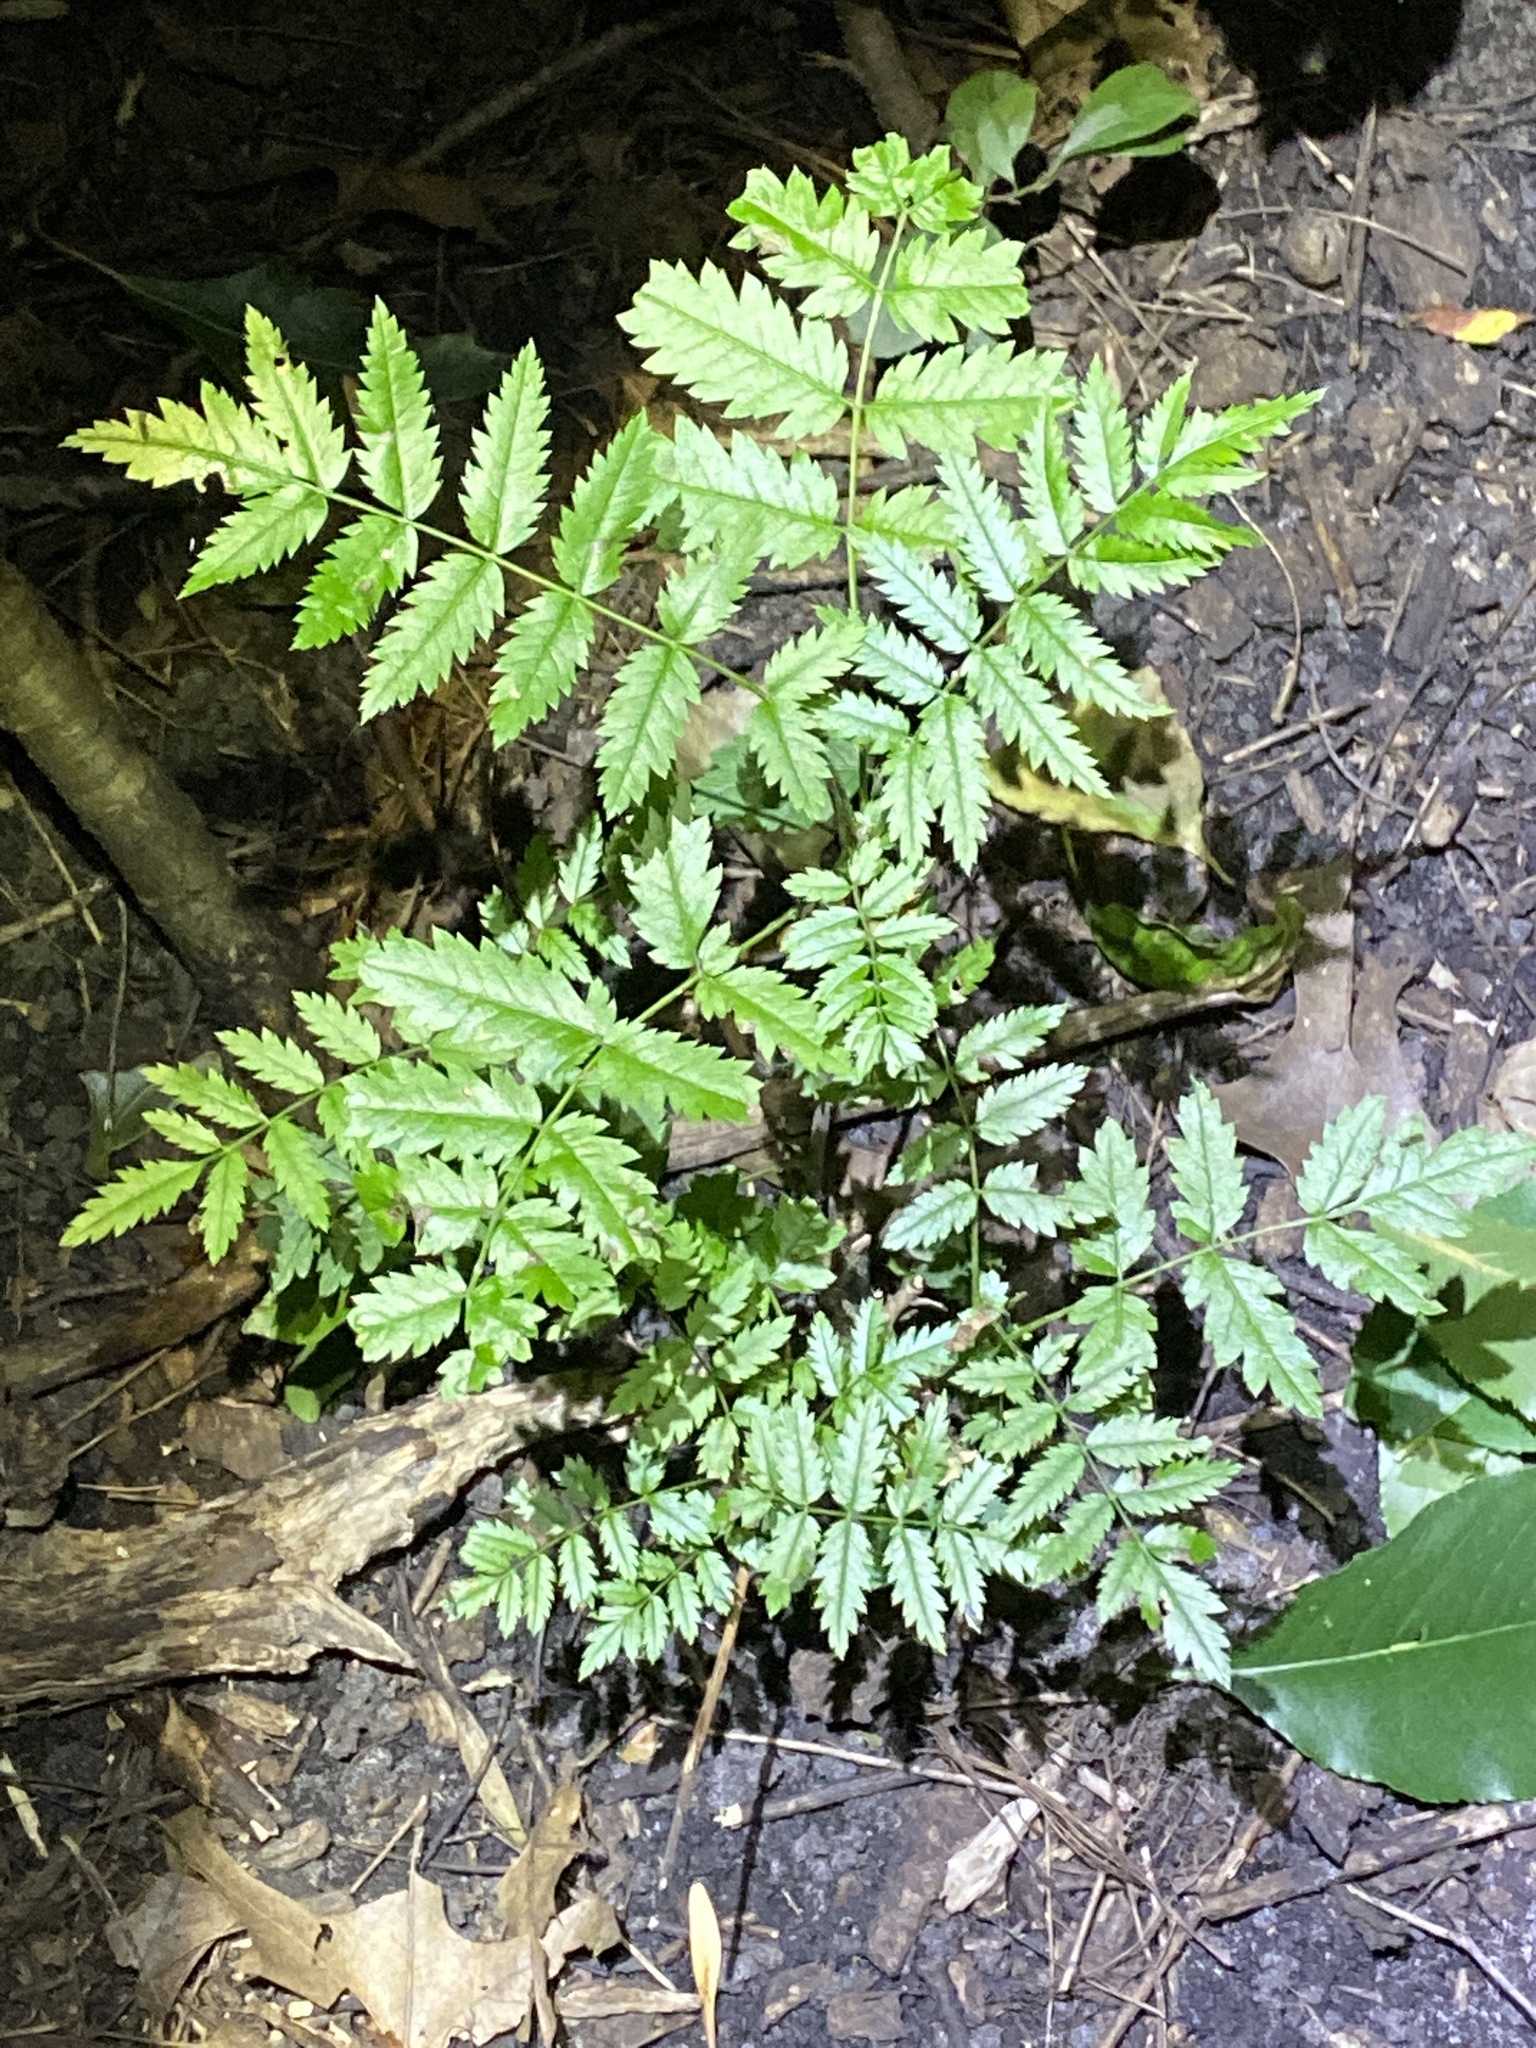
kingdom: Plantae
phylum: Tracheophyta
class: Magnoliopsida
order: Rosales
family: Rosaceae
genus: Sorbus
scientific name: Sorbus aucuparia
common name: Rowan
